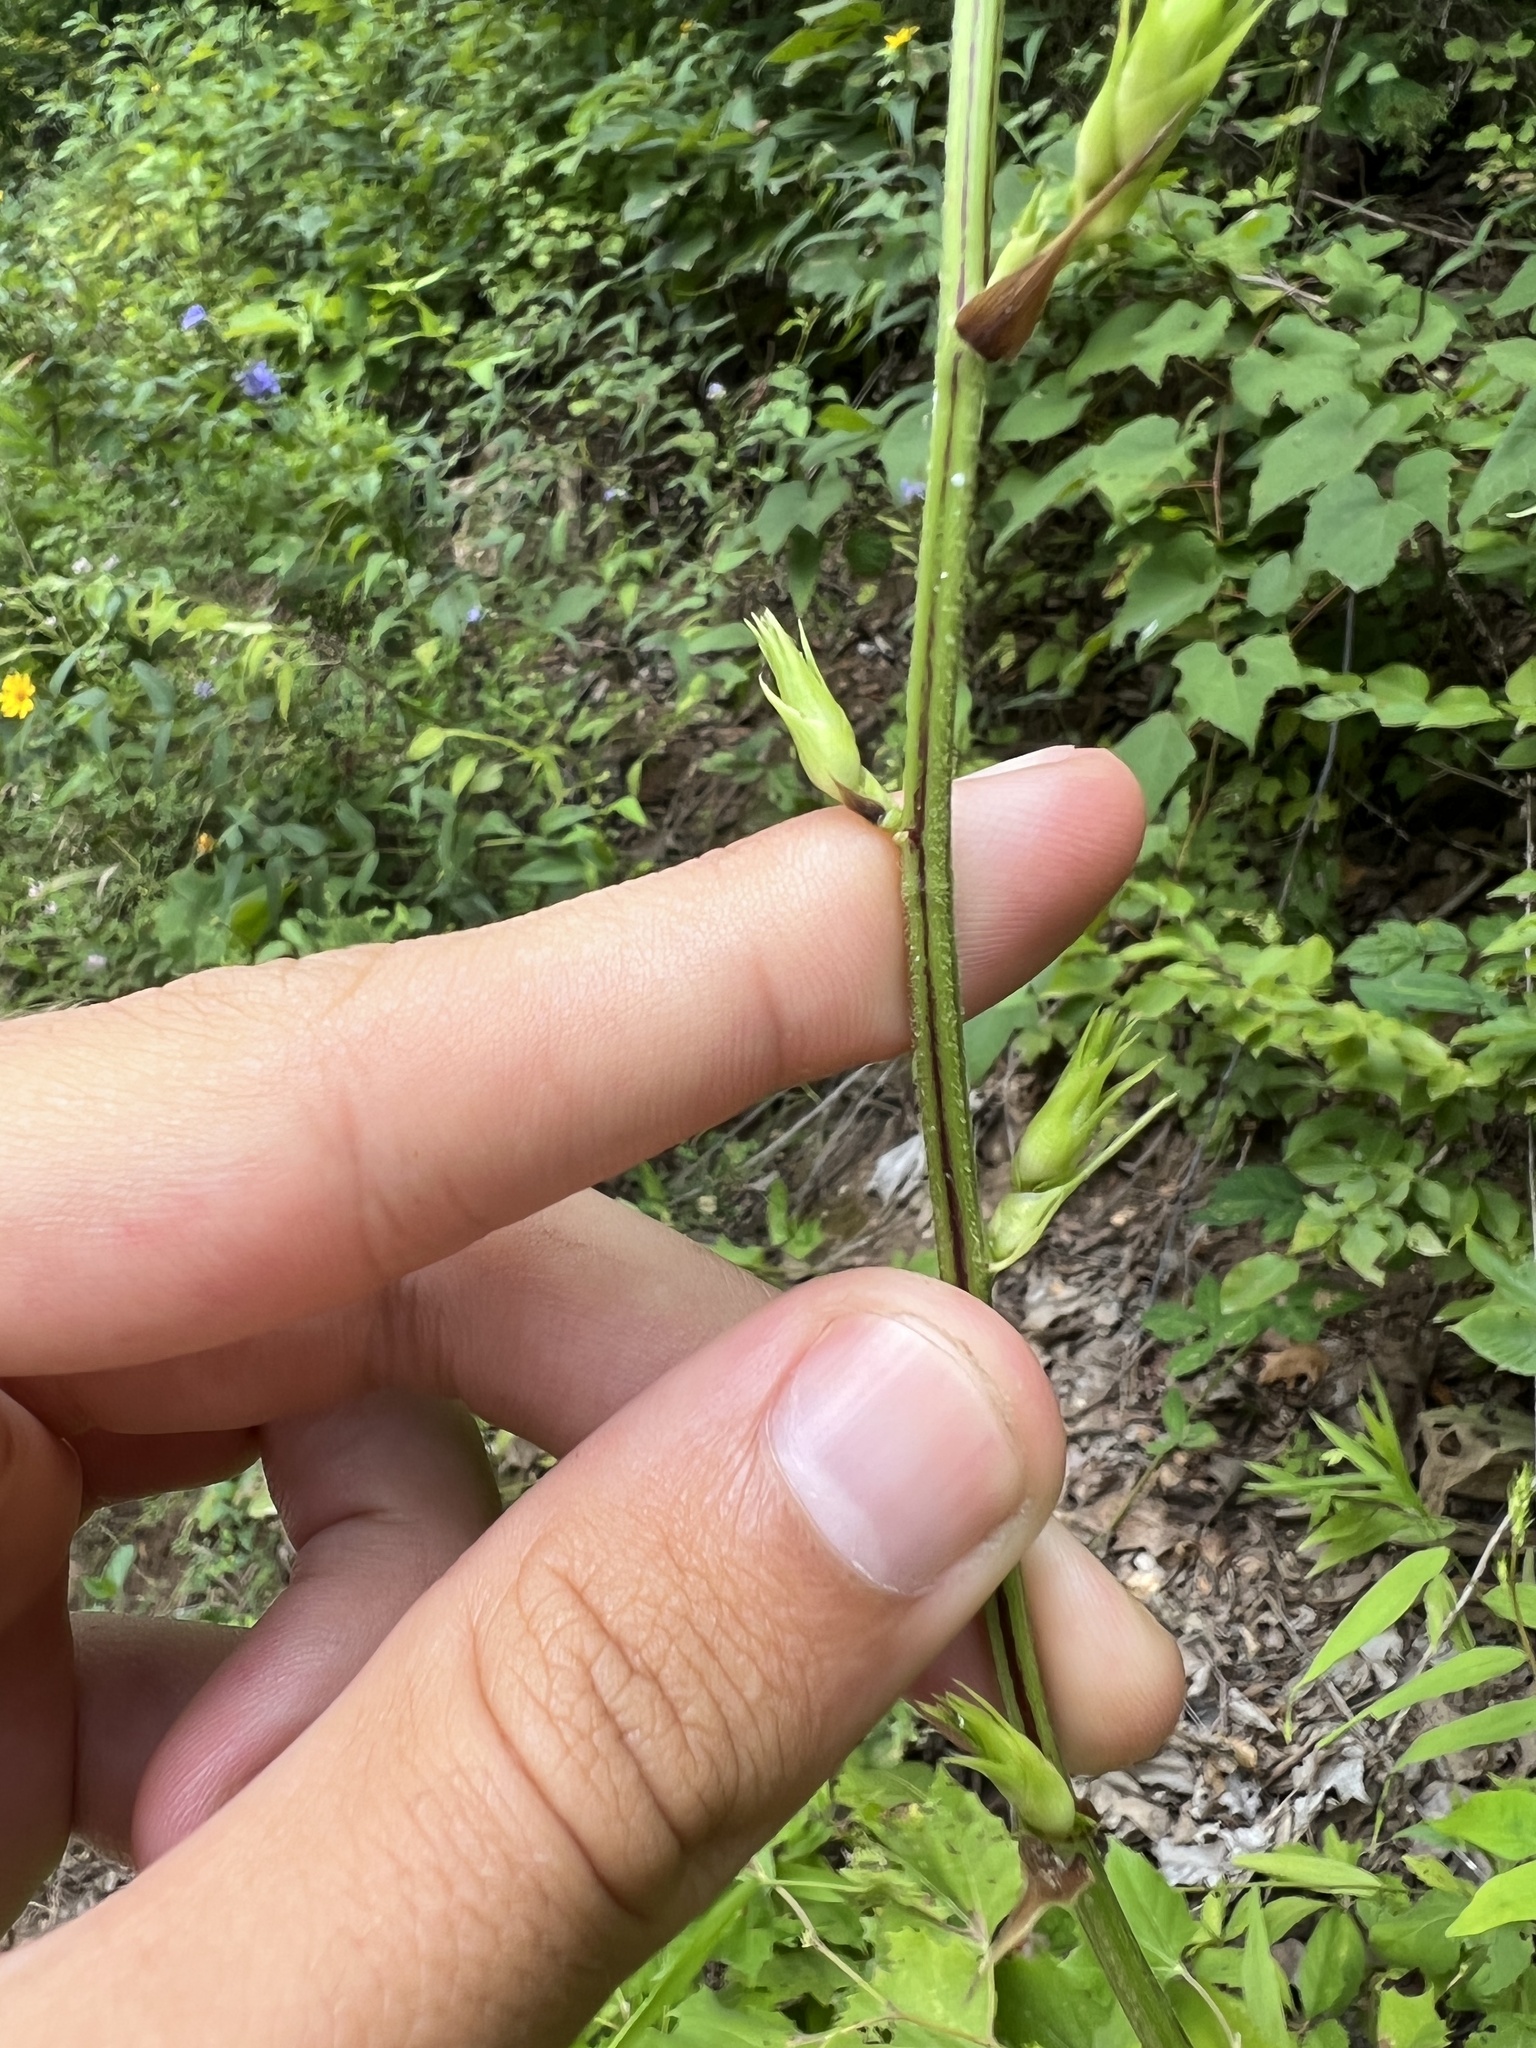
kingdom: Plantae
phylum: Tracheophyta
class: Magnoliopsida
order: Fabales
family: Fabaceae
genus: Desmodium
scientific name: Desmodium cuspidatum
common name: Big tick trefoil
